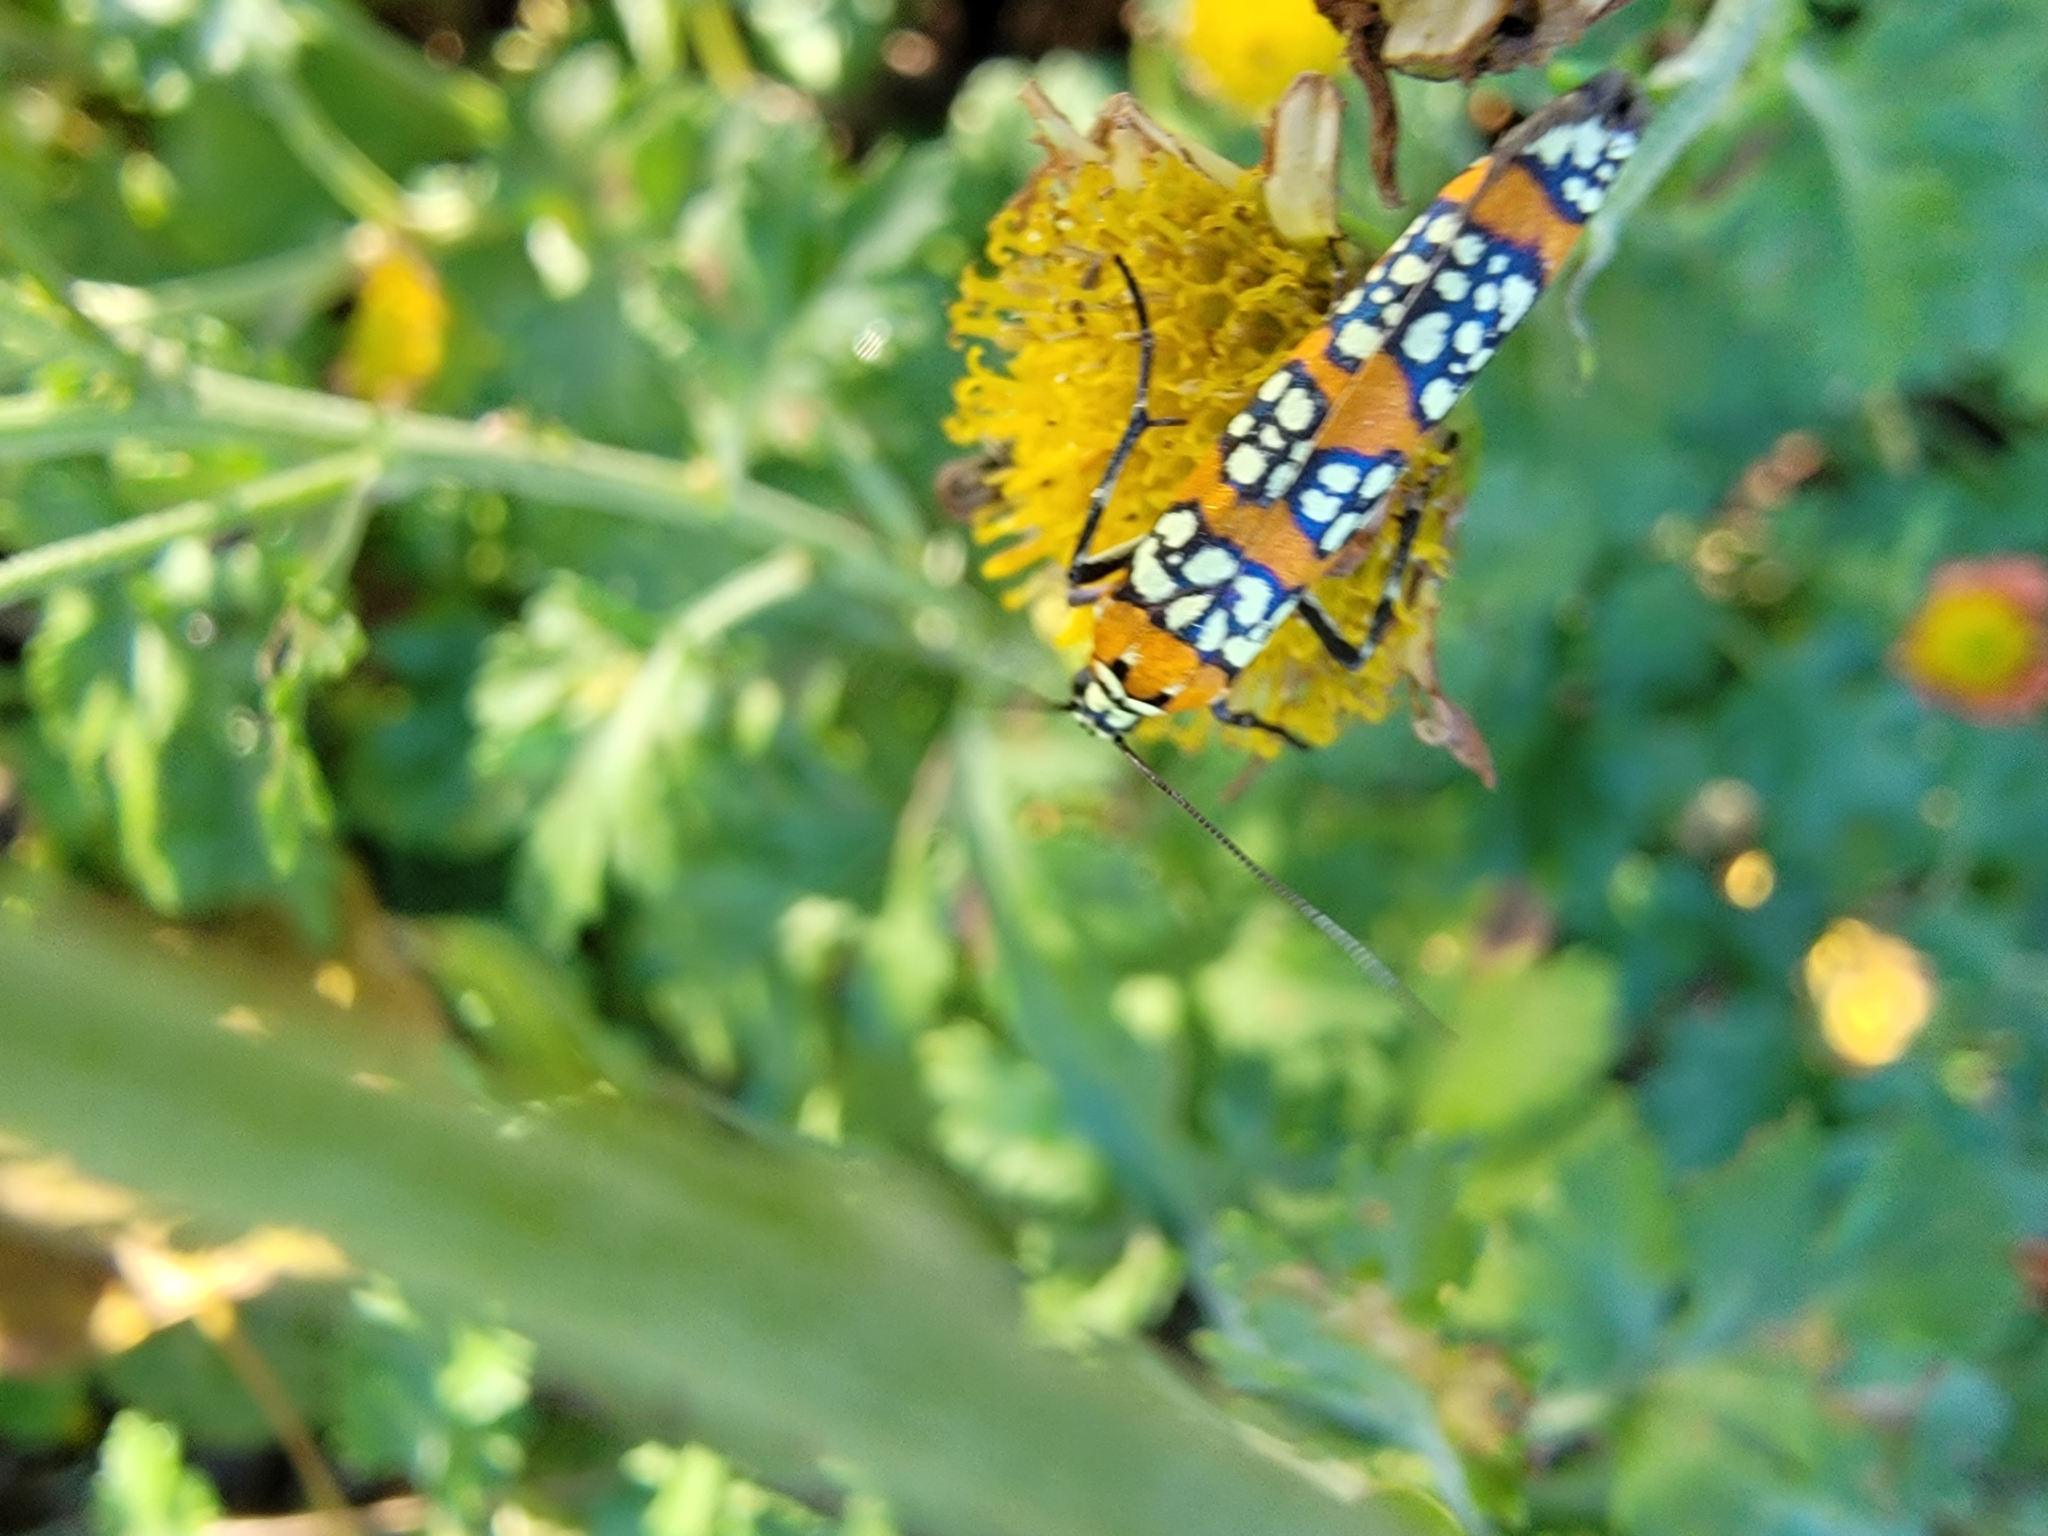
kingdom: Animalia
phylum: Arthropoda
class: Insecta
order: Lepidoptera
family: Attevidae
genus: Atteva
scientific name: Atteva punctella
